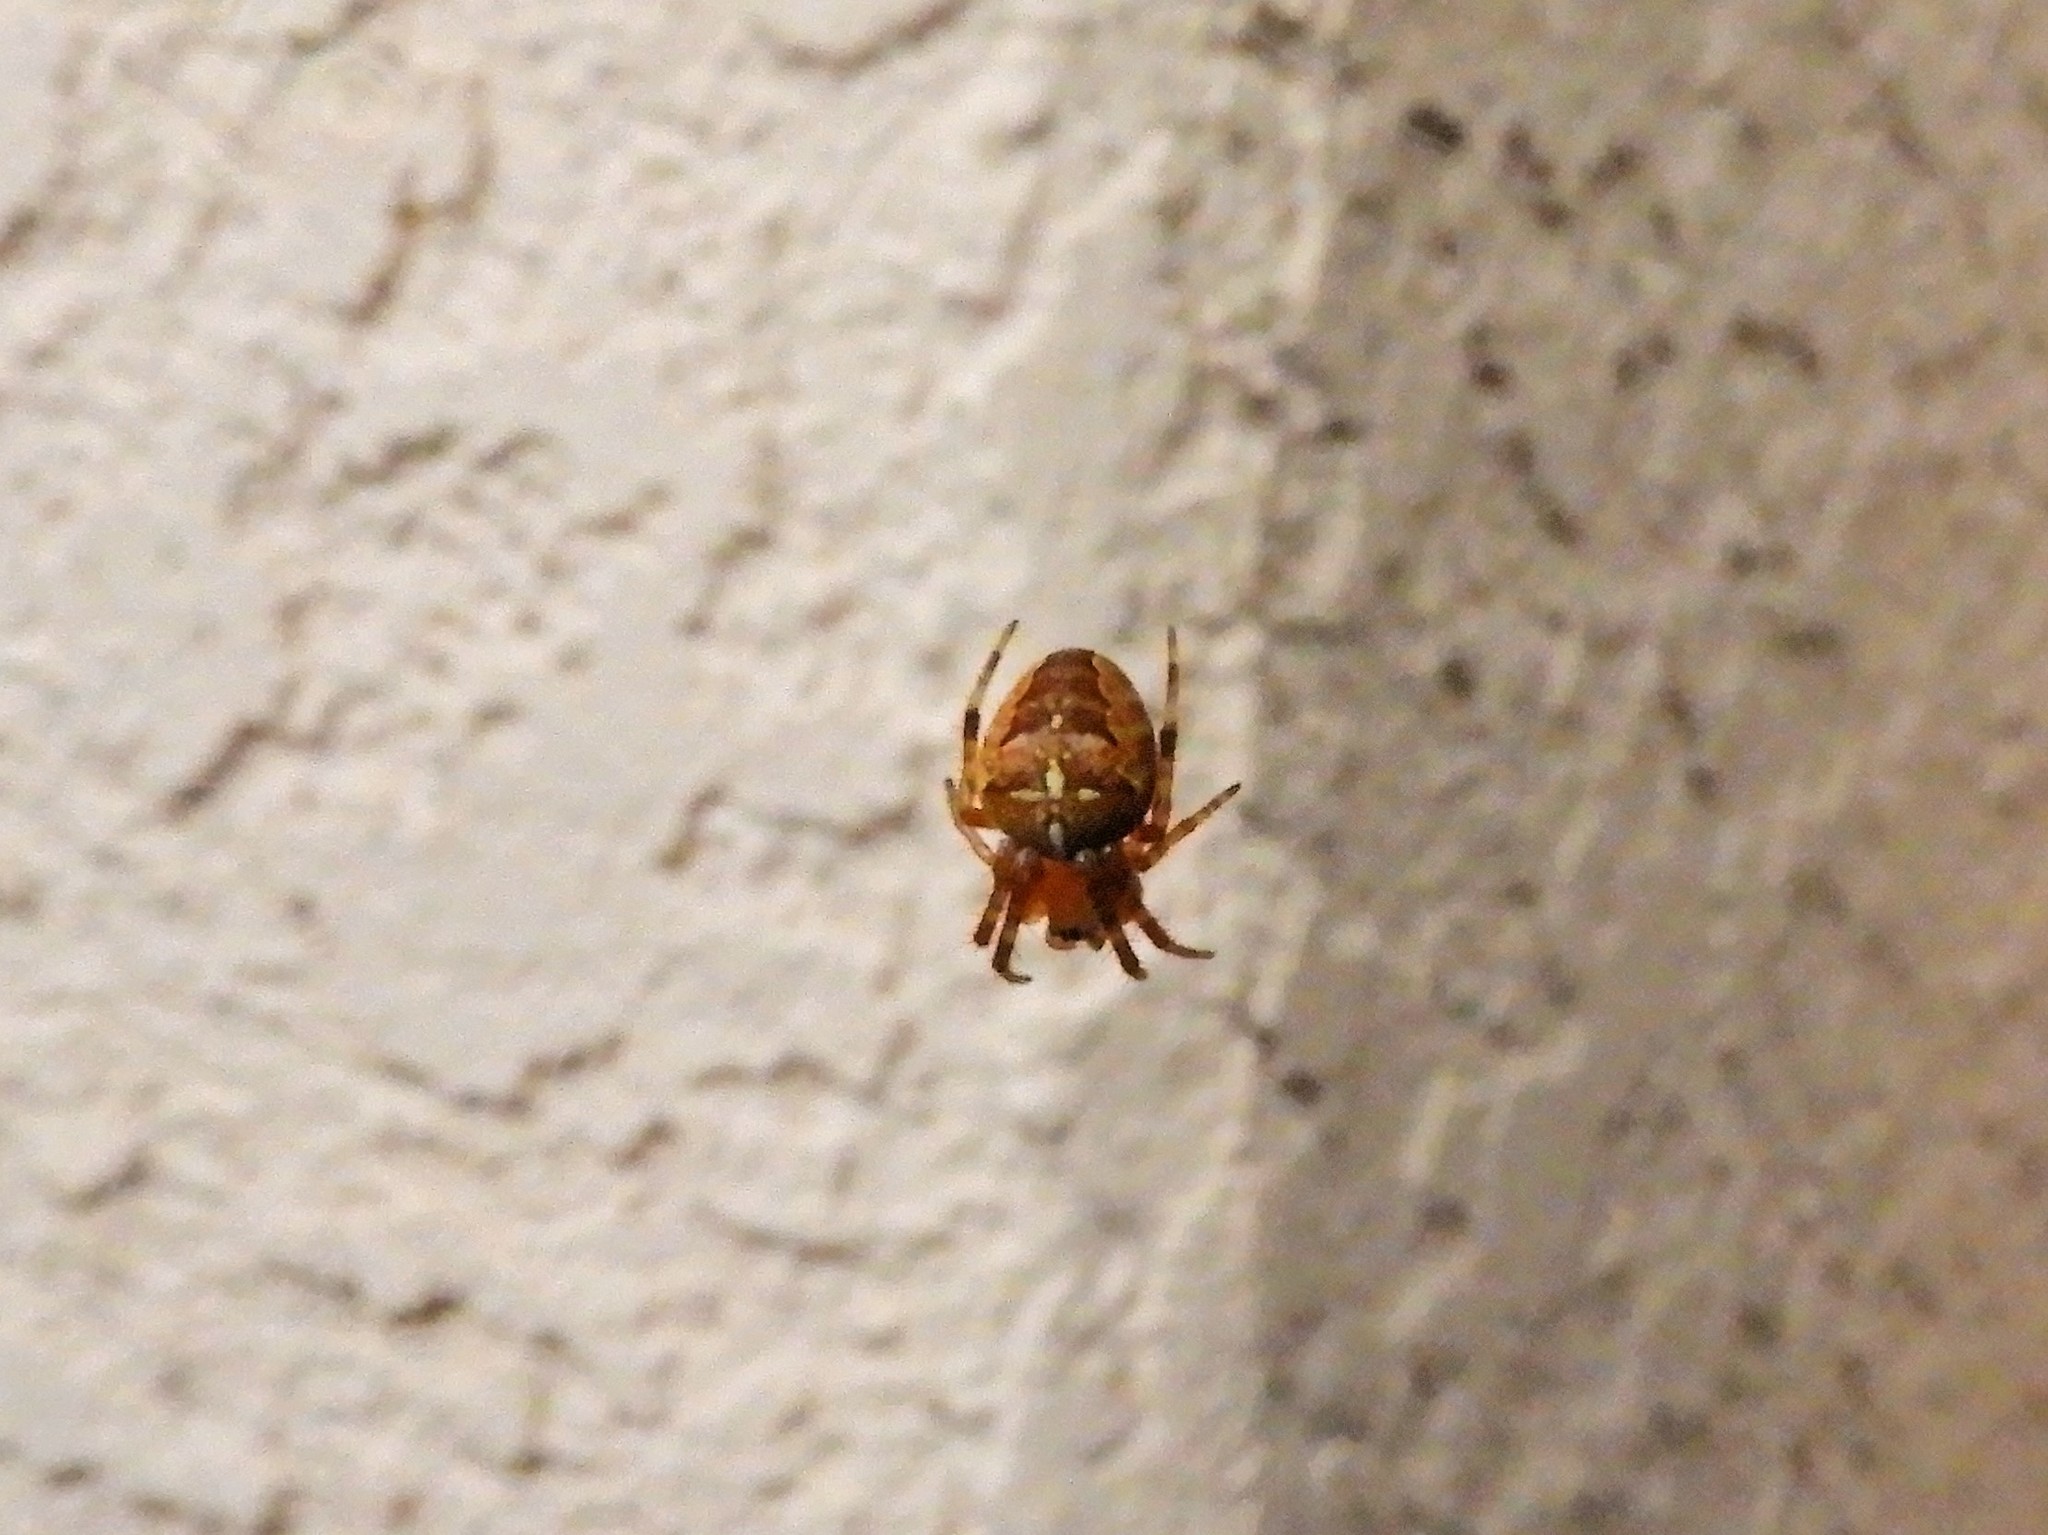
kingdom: Animalia
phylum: Arthropoda
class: Arachnida
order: Araneae
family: Araneidae
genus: Araneus
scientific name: Araneus diadematus
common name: Cross orbweaver
